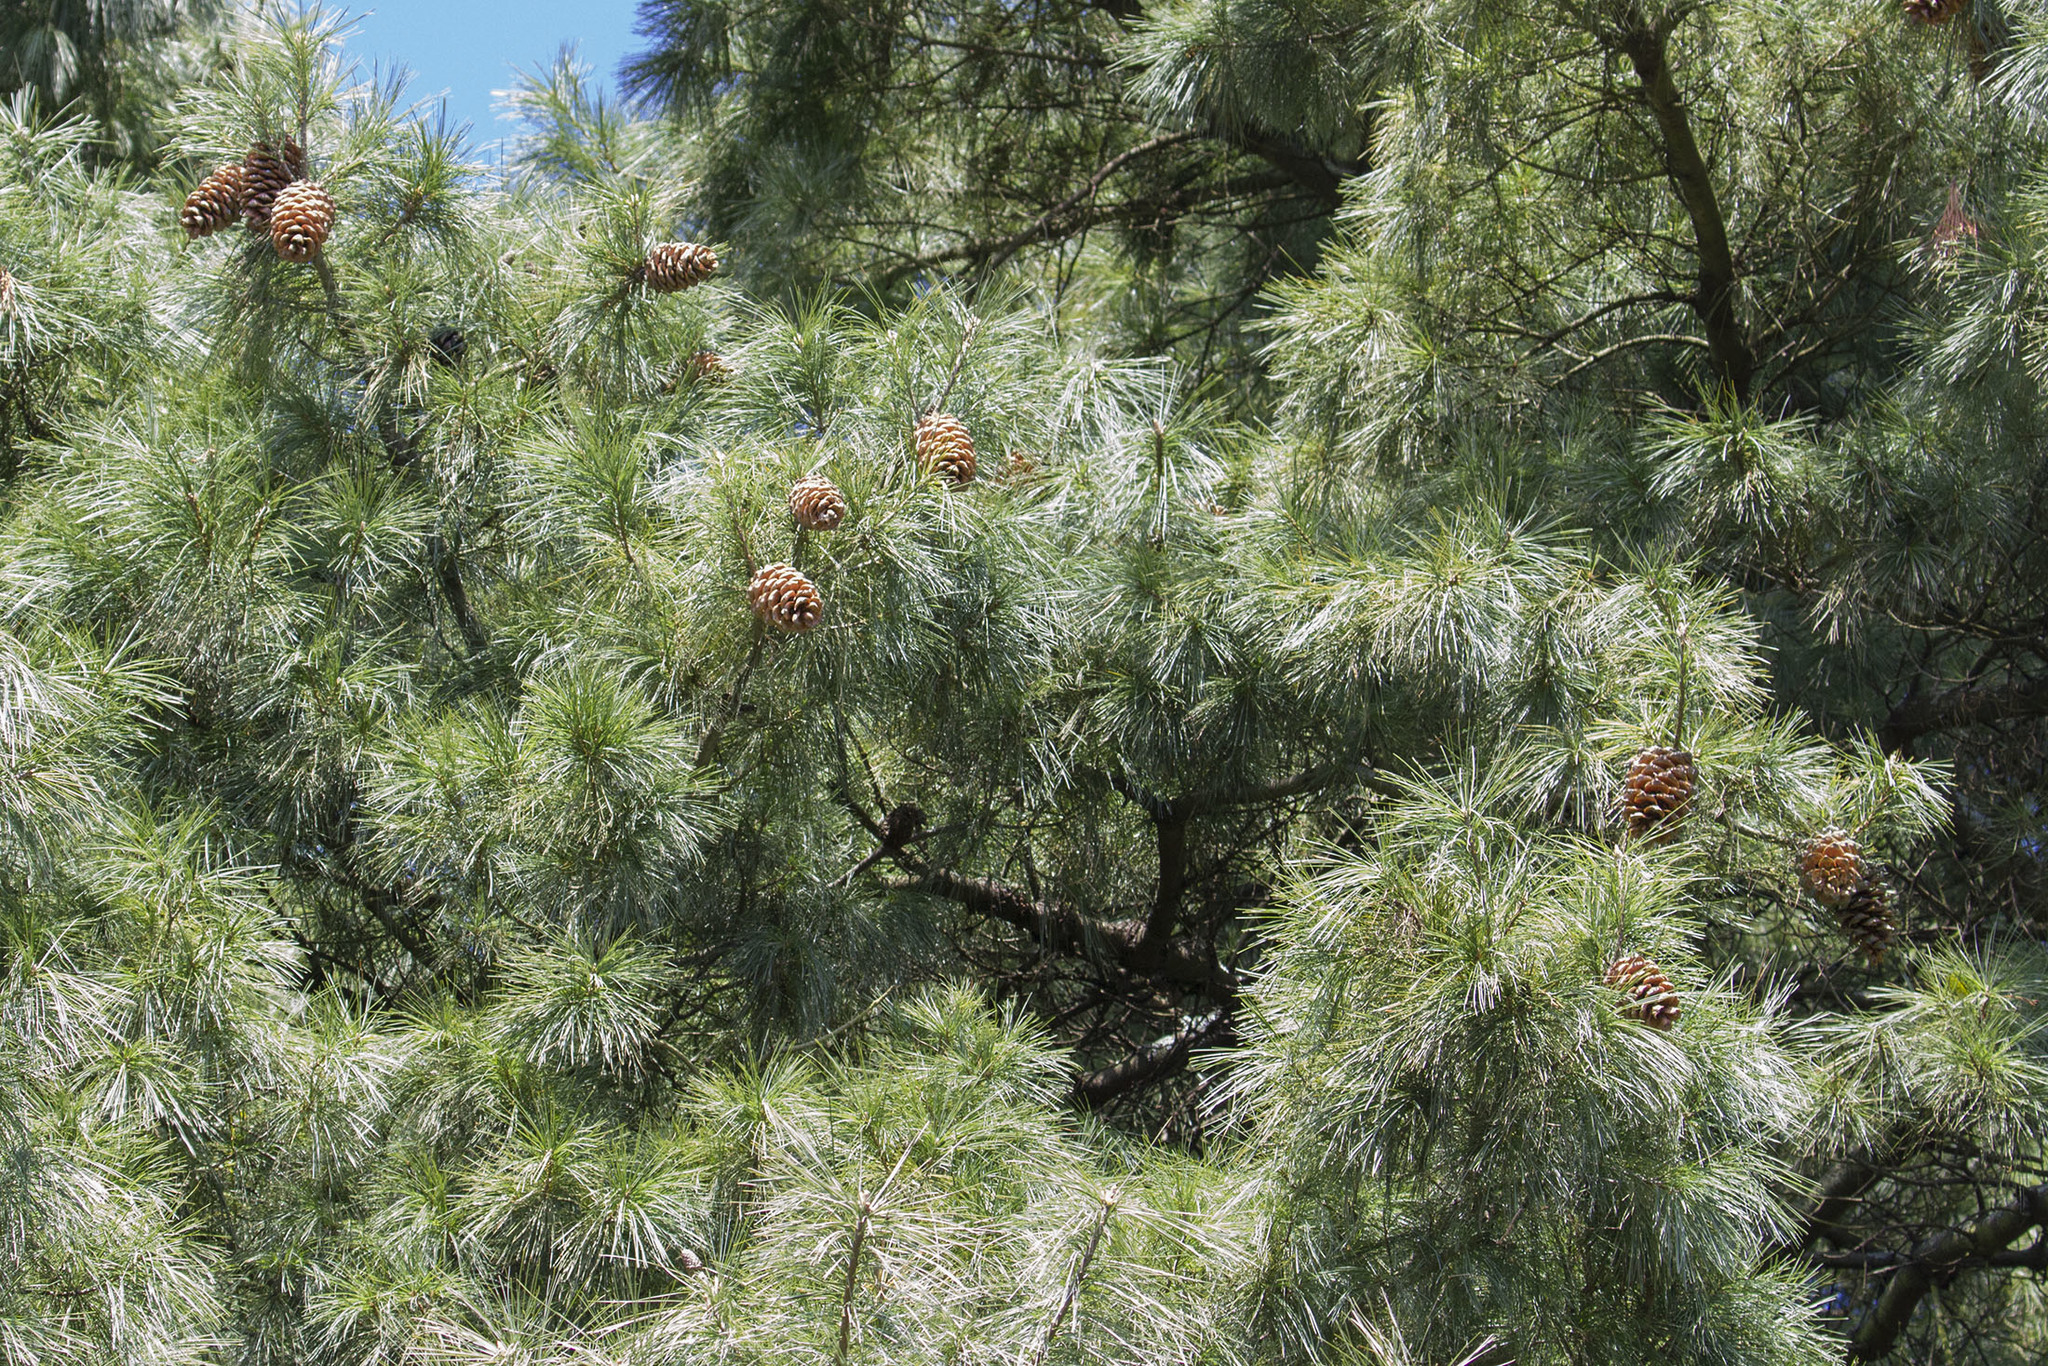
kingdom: Plantae
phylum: Tracheophyta
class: Pinopsida
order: Pinales
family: Pinaceae
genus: Pinus
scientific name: Pinus armandii
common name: Armand's pine
